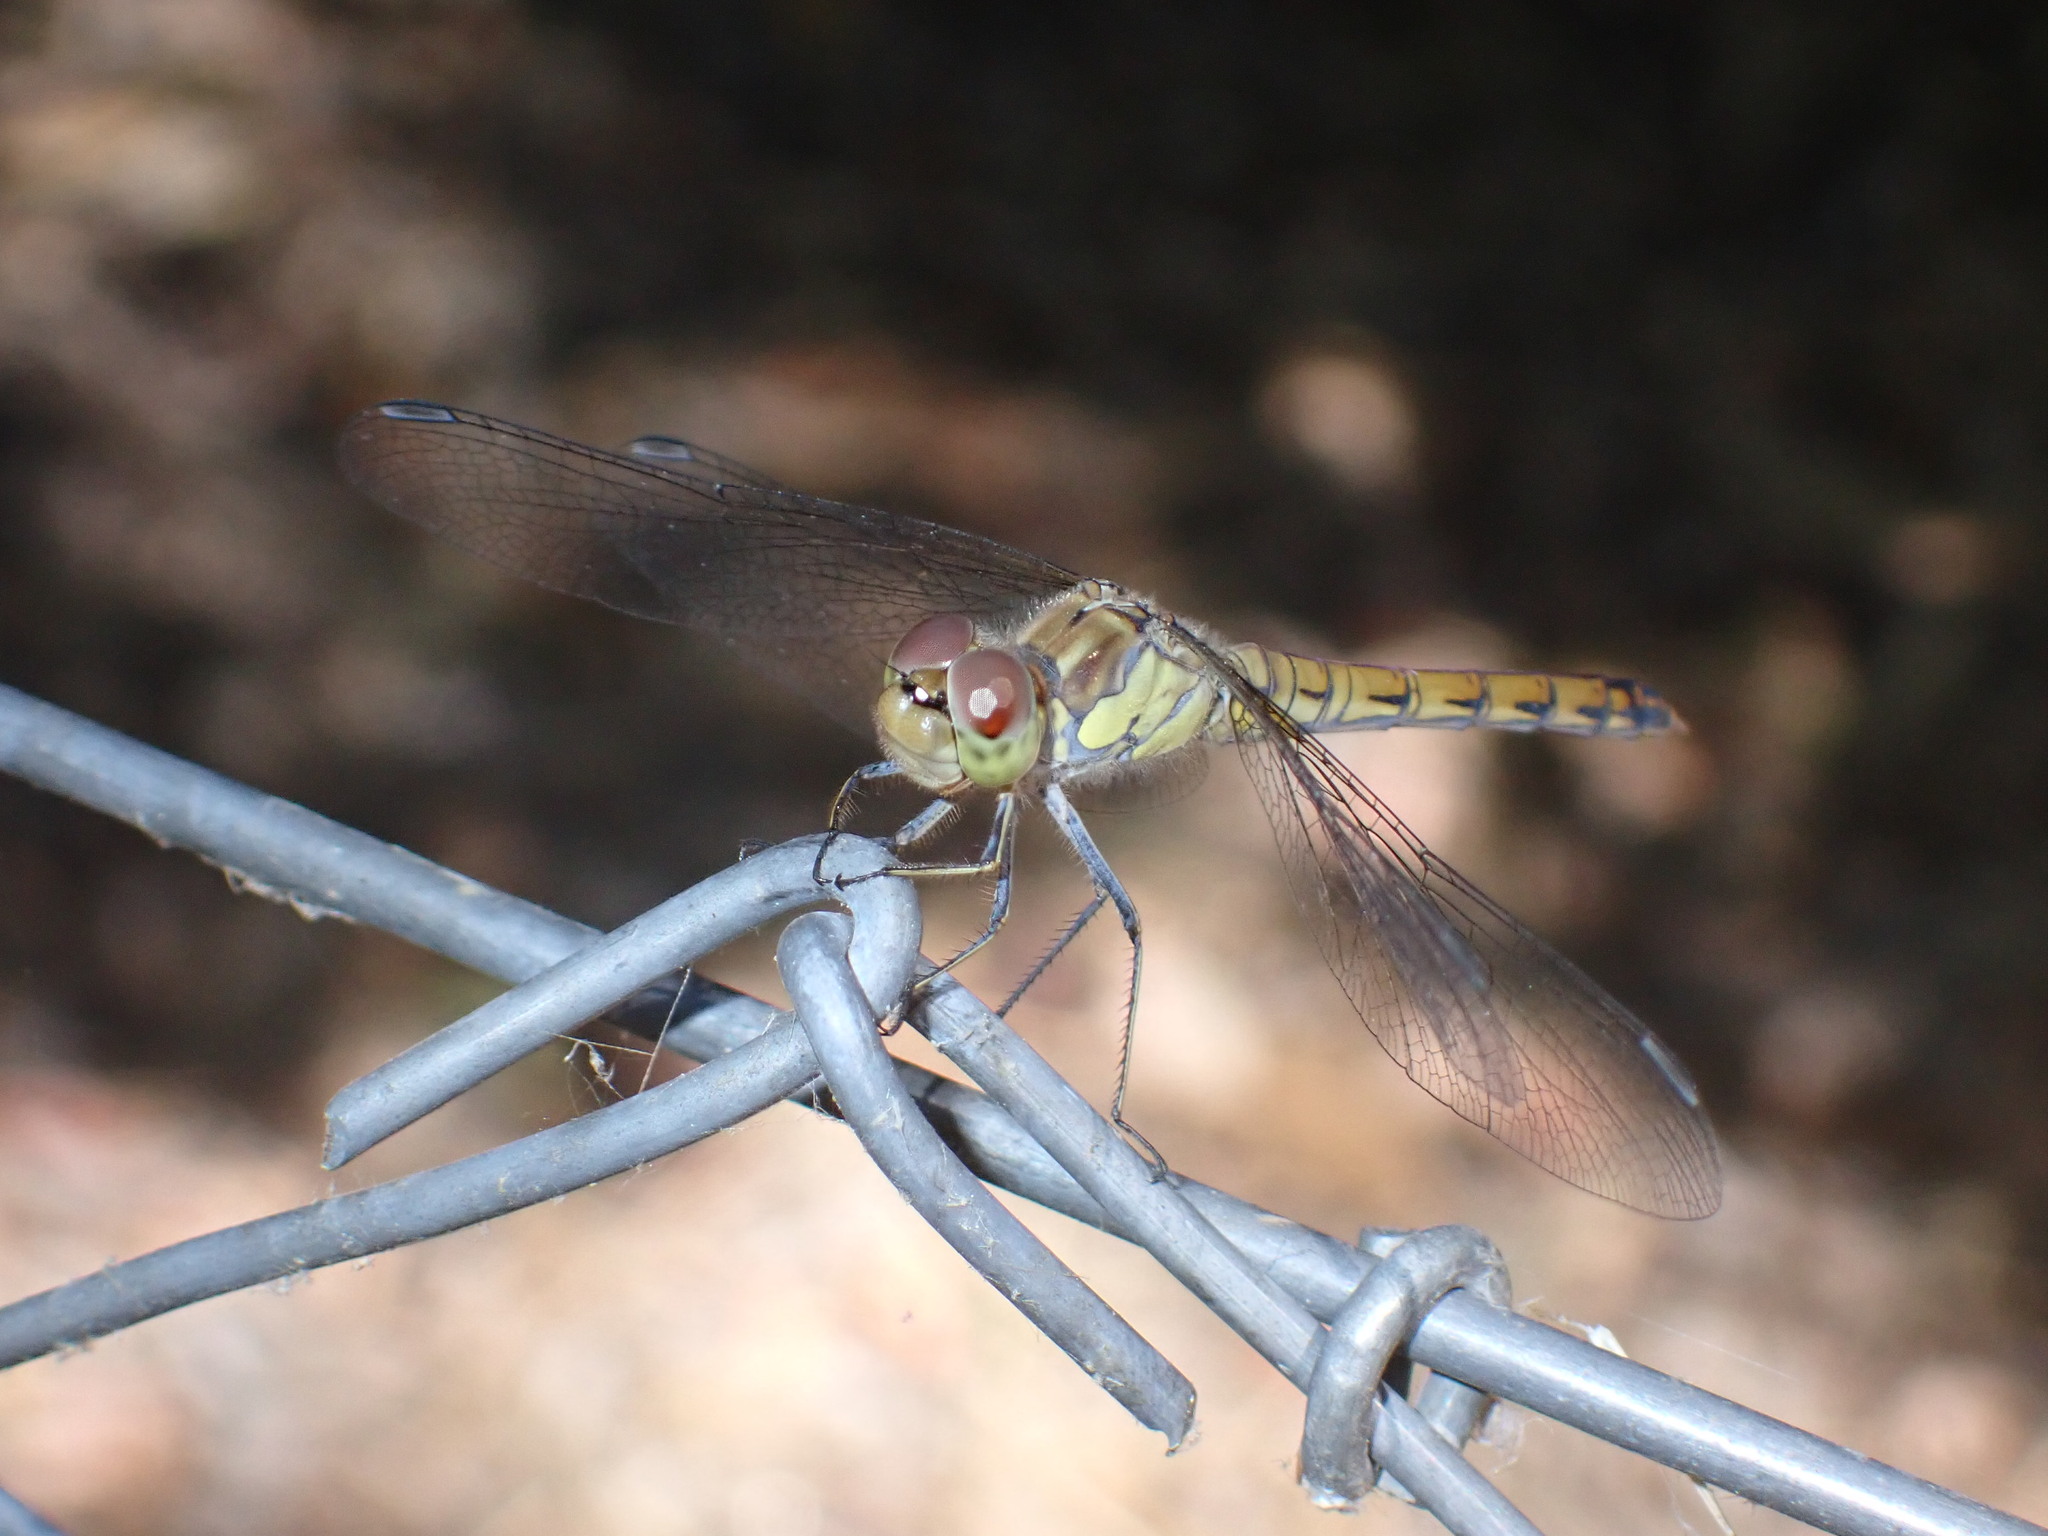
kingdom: Animalia
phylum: Arthropoda
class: Insecta
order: Odonata
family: Libellulidae
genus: Sympetrum
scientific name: Sympetrum striolatum
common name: Common darter
